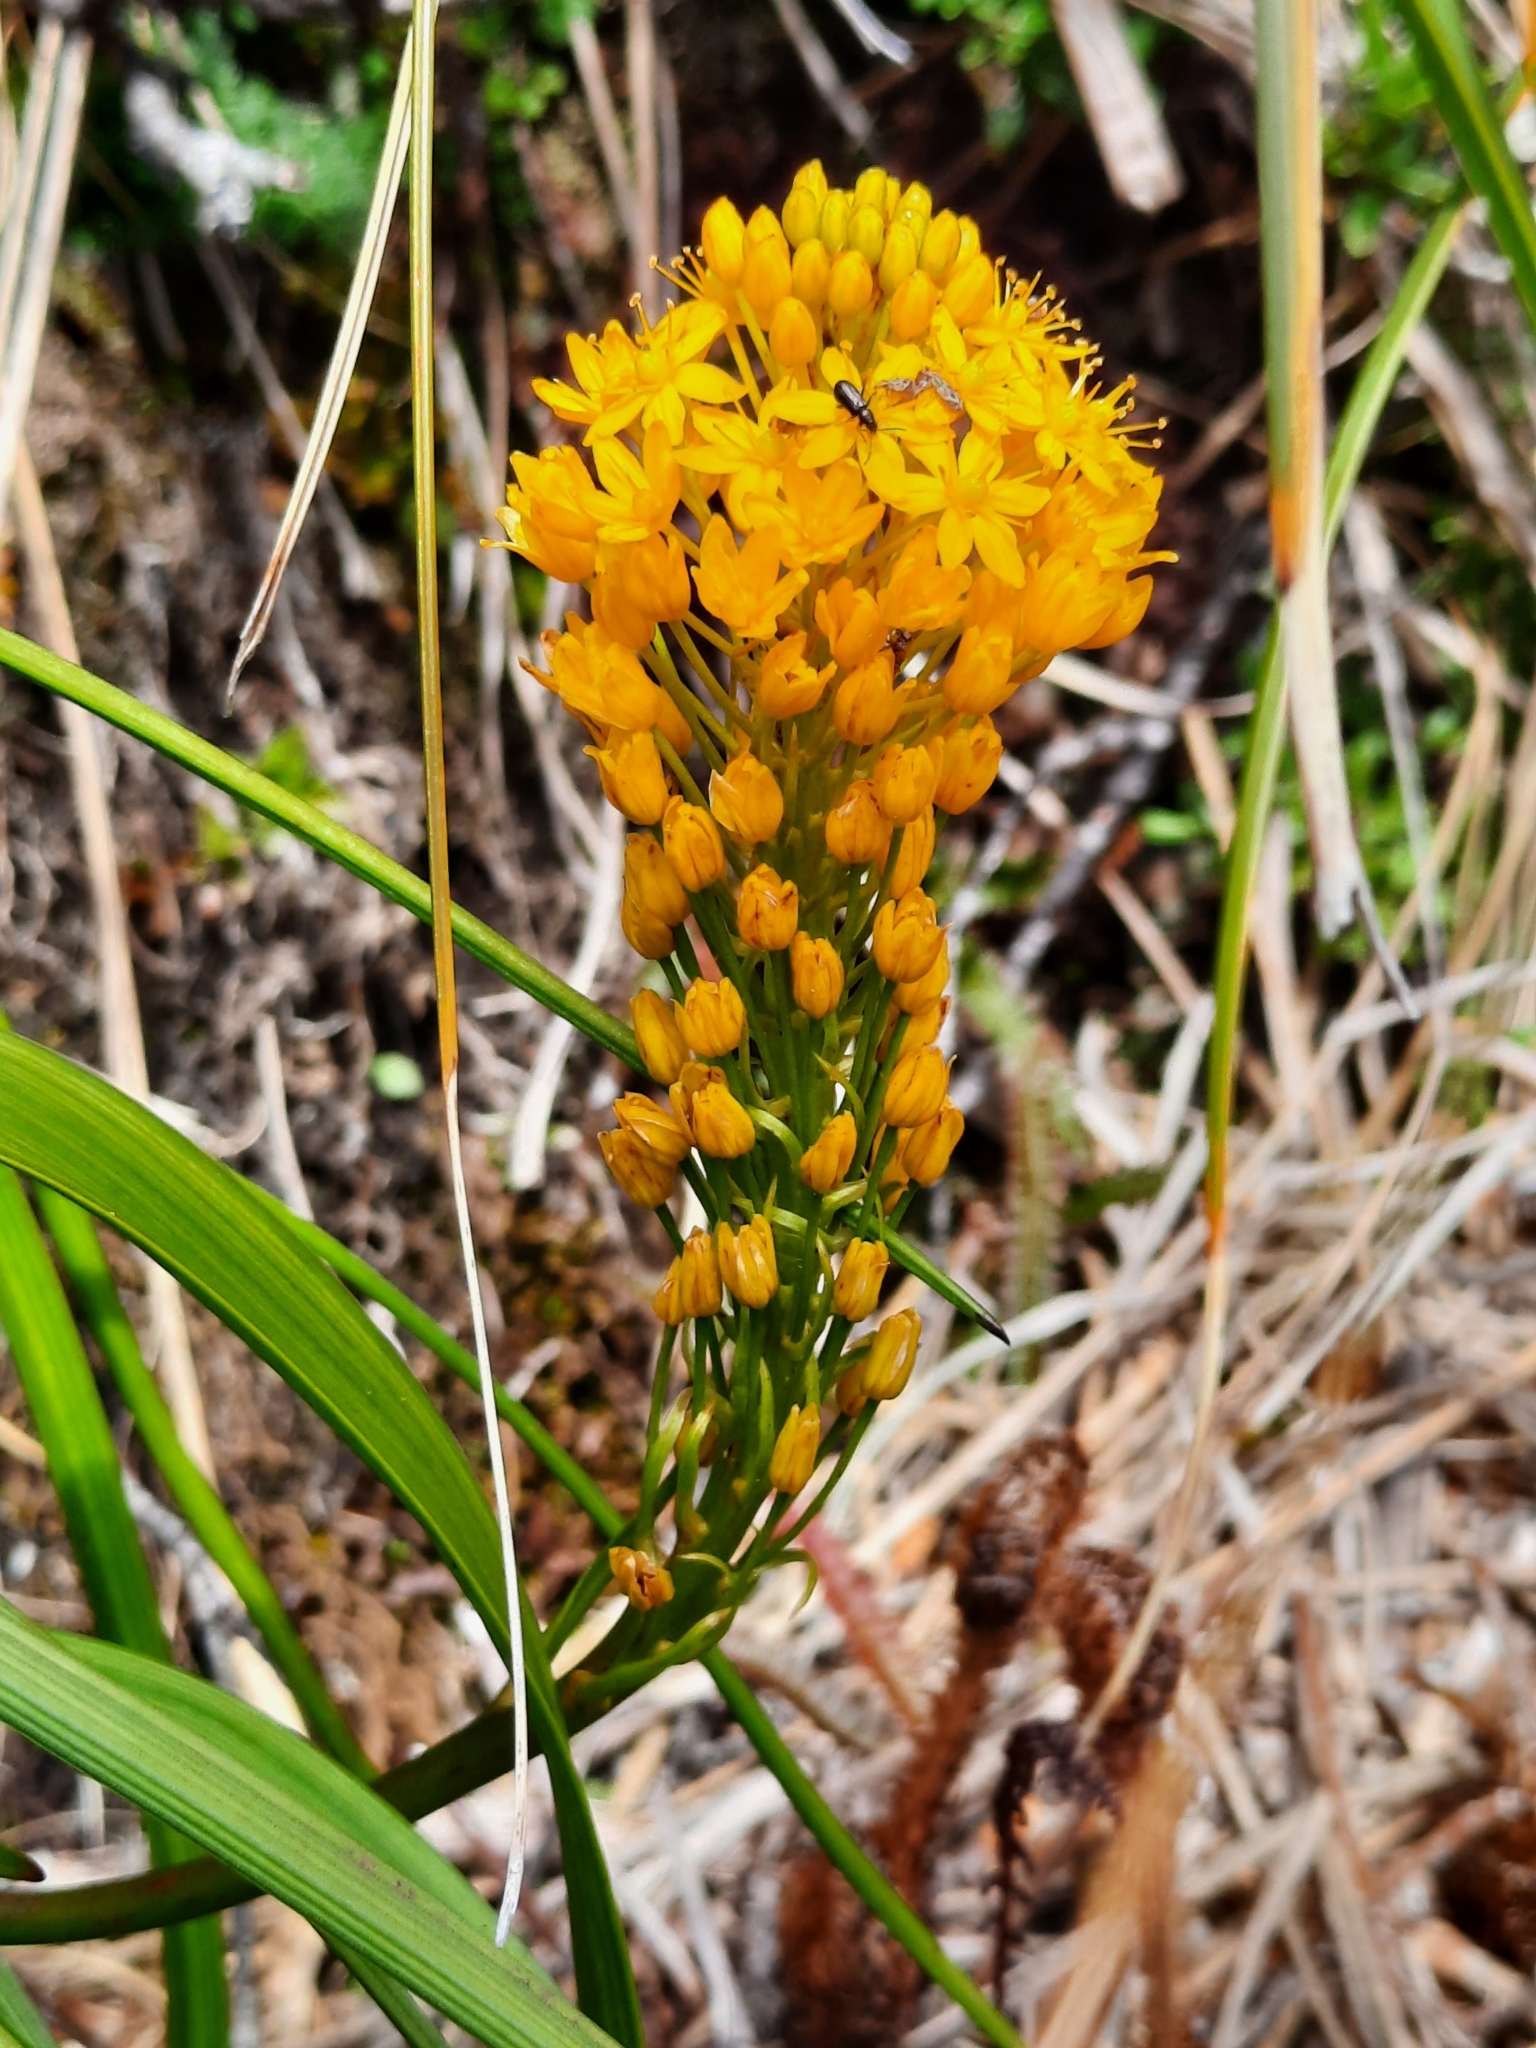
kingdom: Plantae
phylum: Tracheophyta
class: Liliopsida
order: Asparagales
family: Asphodelaceae
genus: Bulbinella
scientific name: Bulbinella gibbsii
